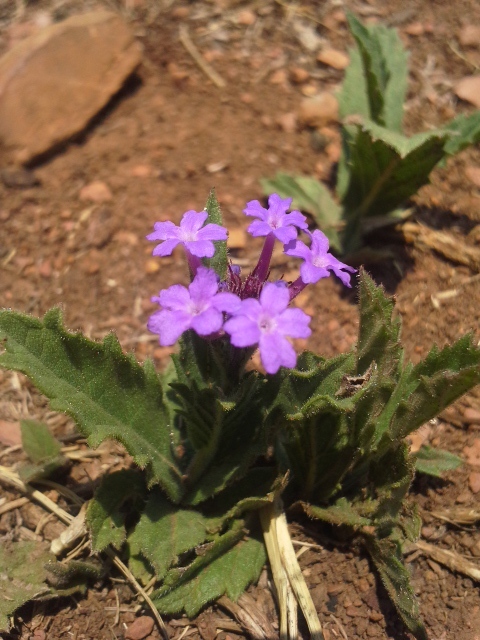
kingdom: Plantae
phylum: Tracheophyta
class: Magnoliopsida
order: Lamiales
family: Verbenaceae
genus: Verbena
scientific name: Verbena rigida
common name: Slender vervain
